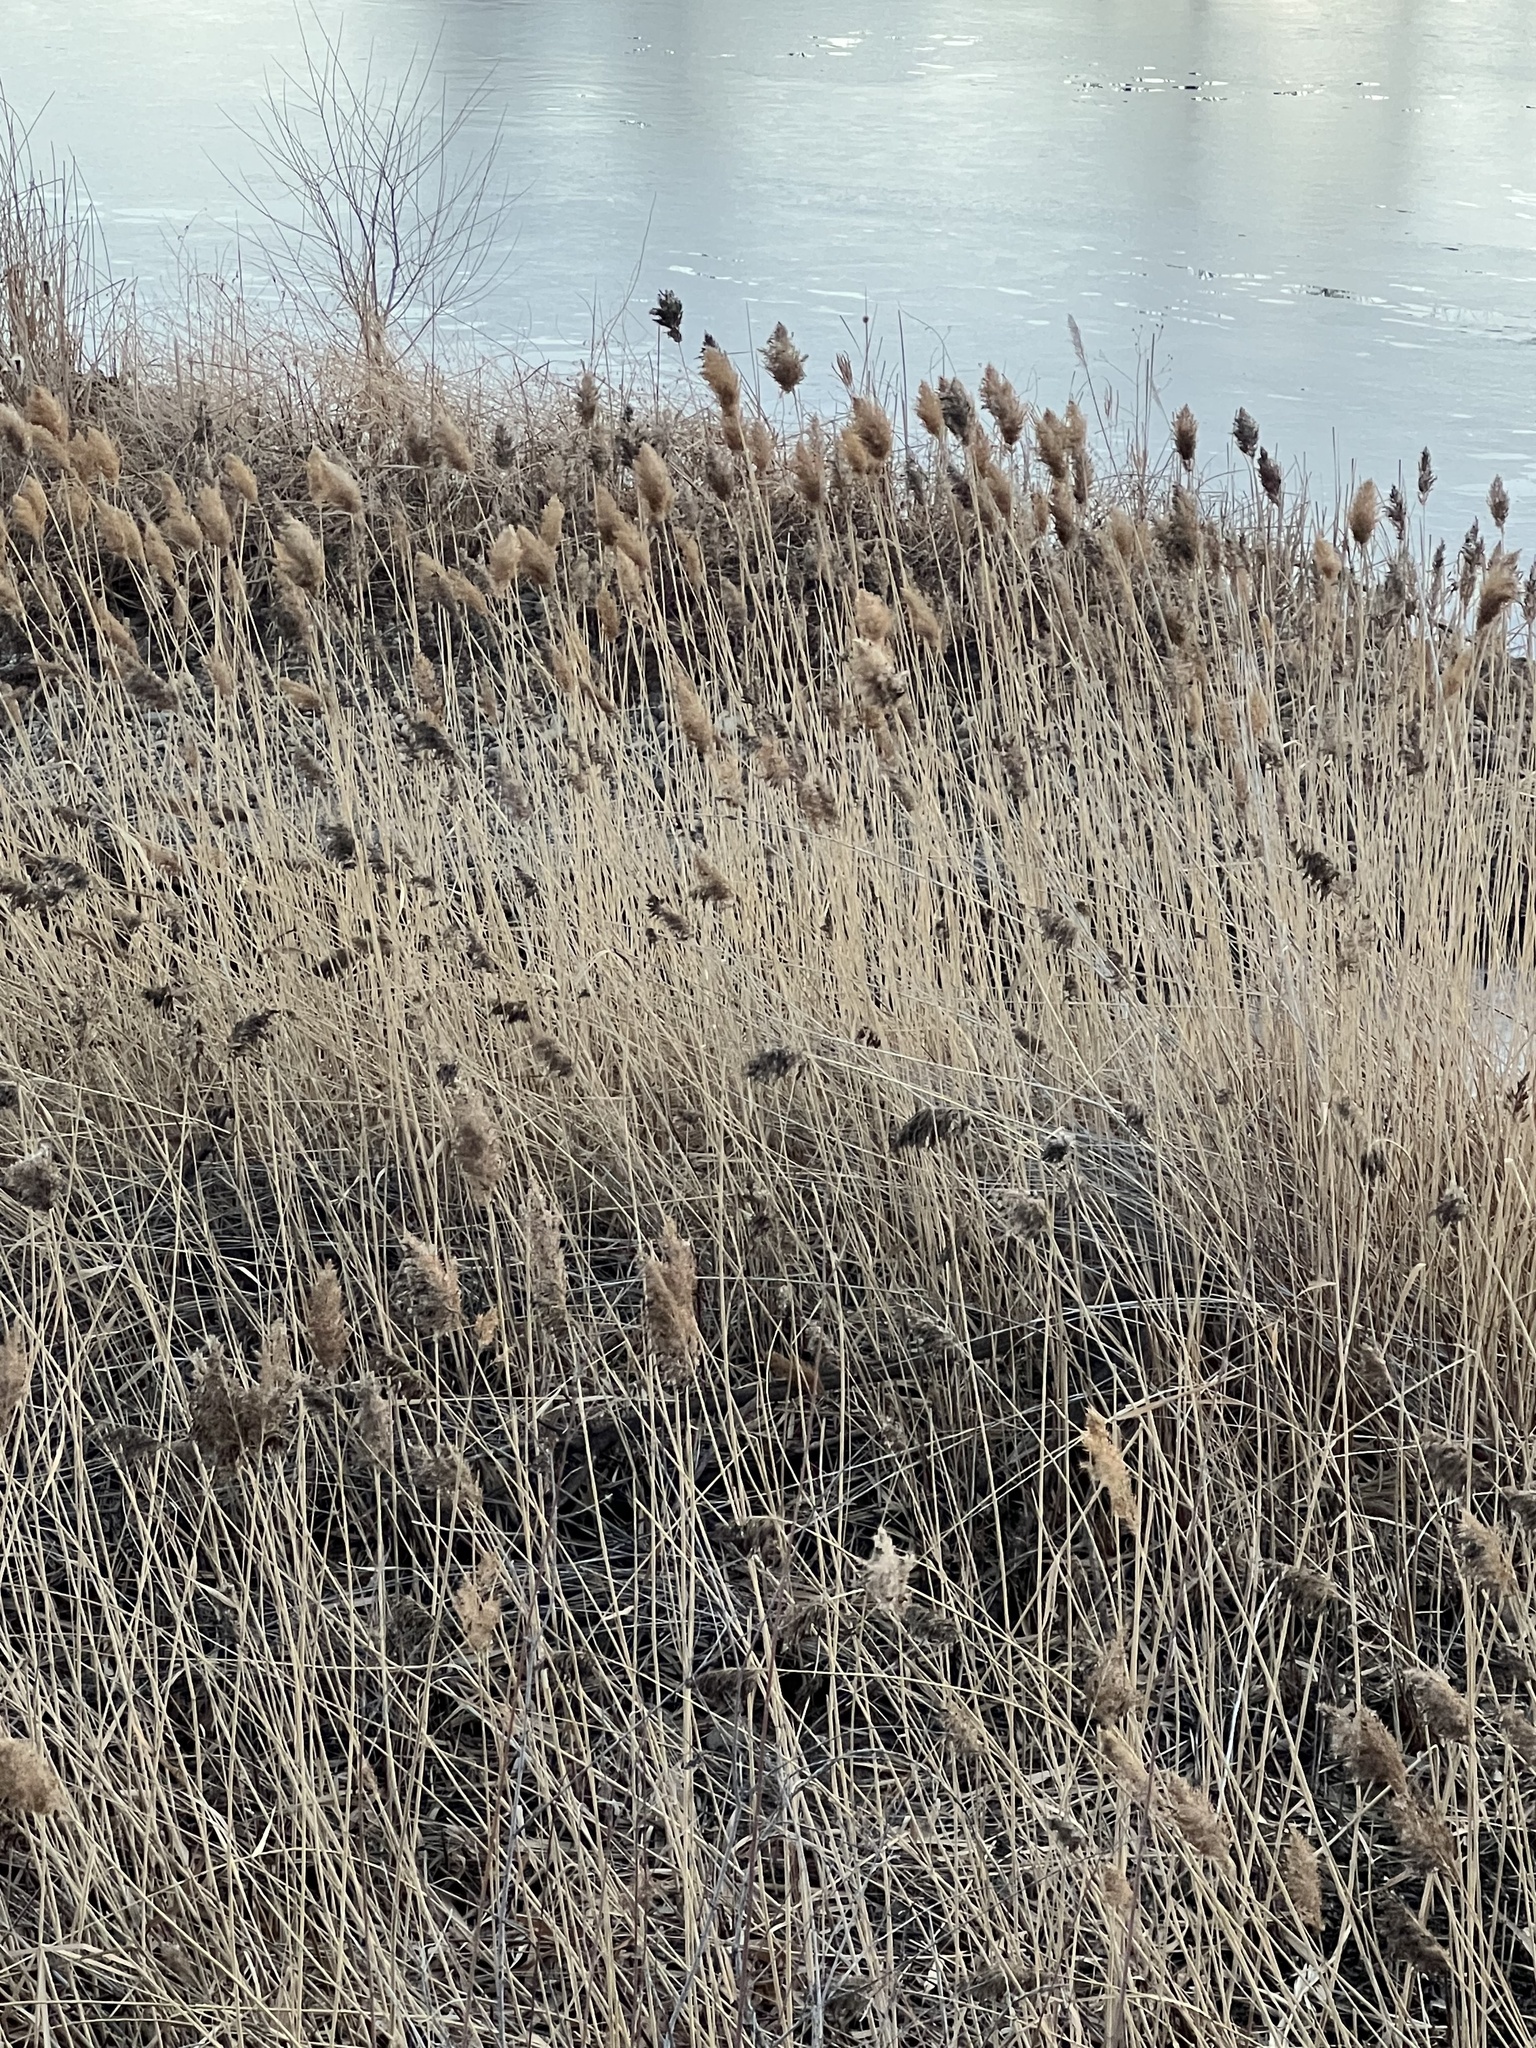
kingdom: Plantae
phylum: Tracheophyta
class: Liliopsida
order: Poales
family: Poaceae
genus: Phragmites
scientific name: Phragmites australis
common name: Common reed
